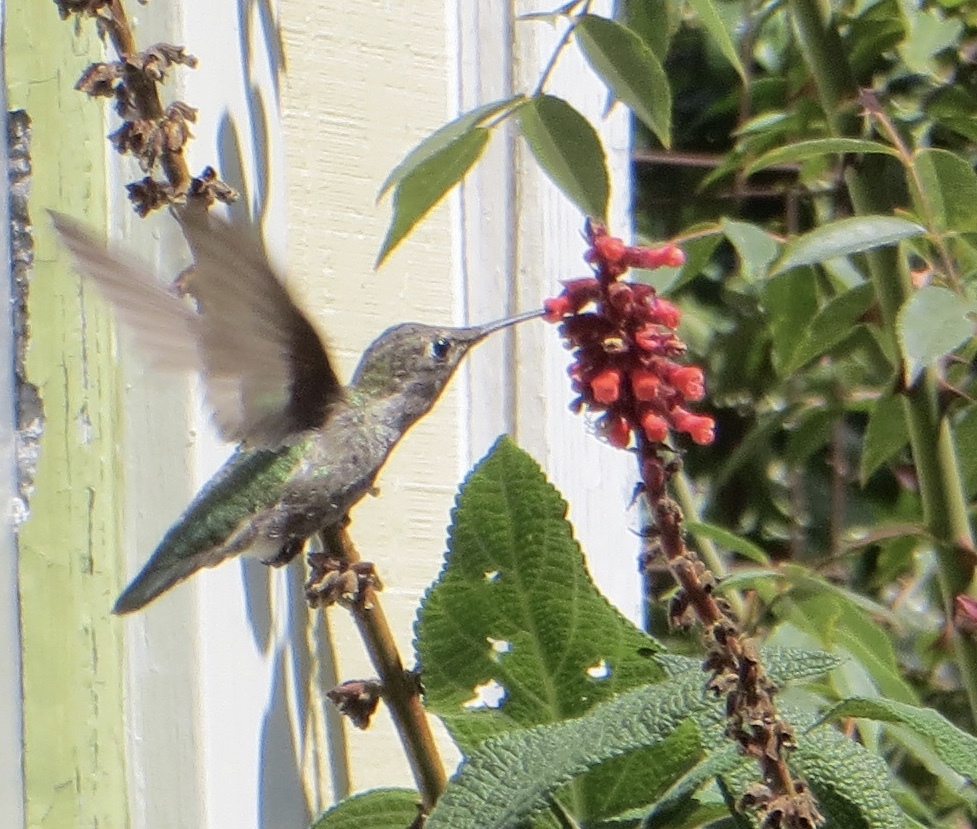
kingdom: Animalia
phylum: Chordata
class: Aves
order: Apodiformes
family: Trochilidae
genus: Calypte
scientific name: Calypte anna
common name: Anna's hummingbird
